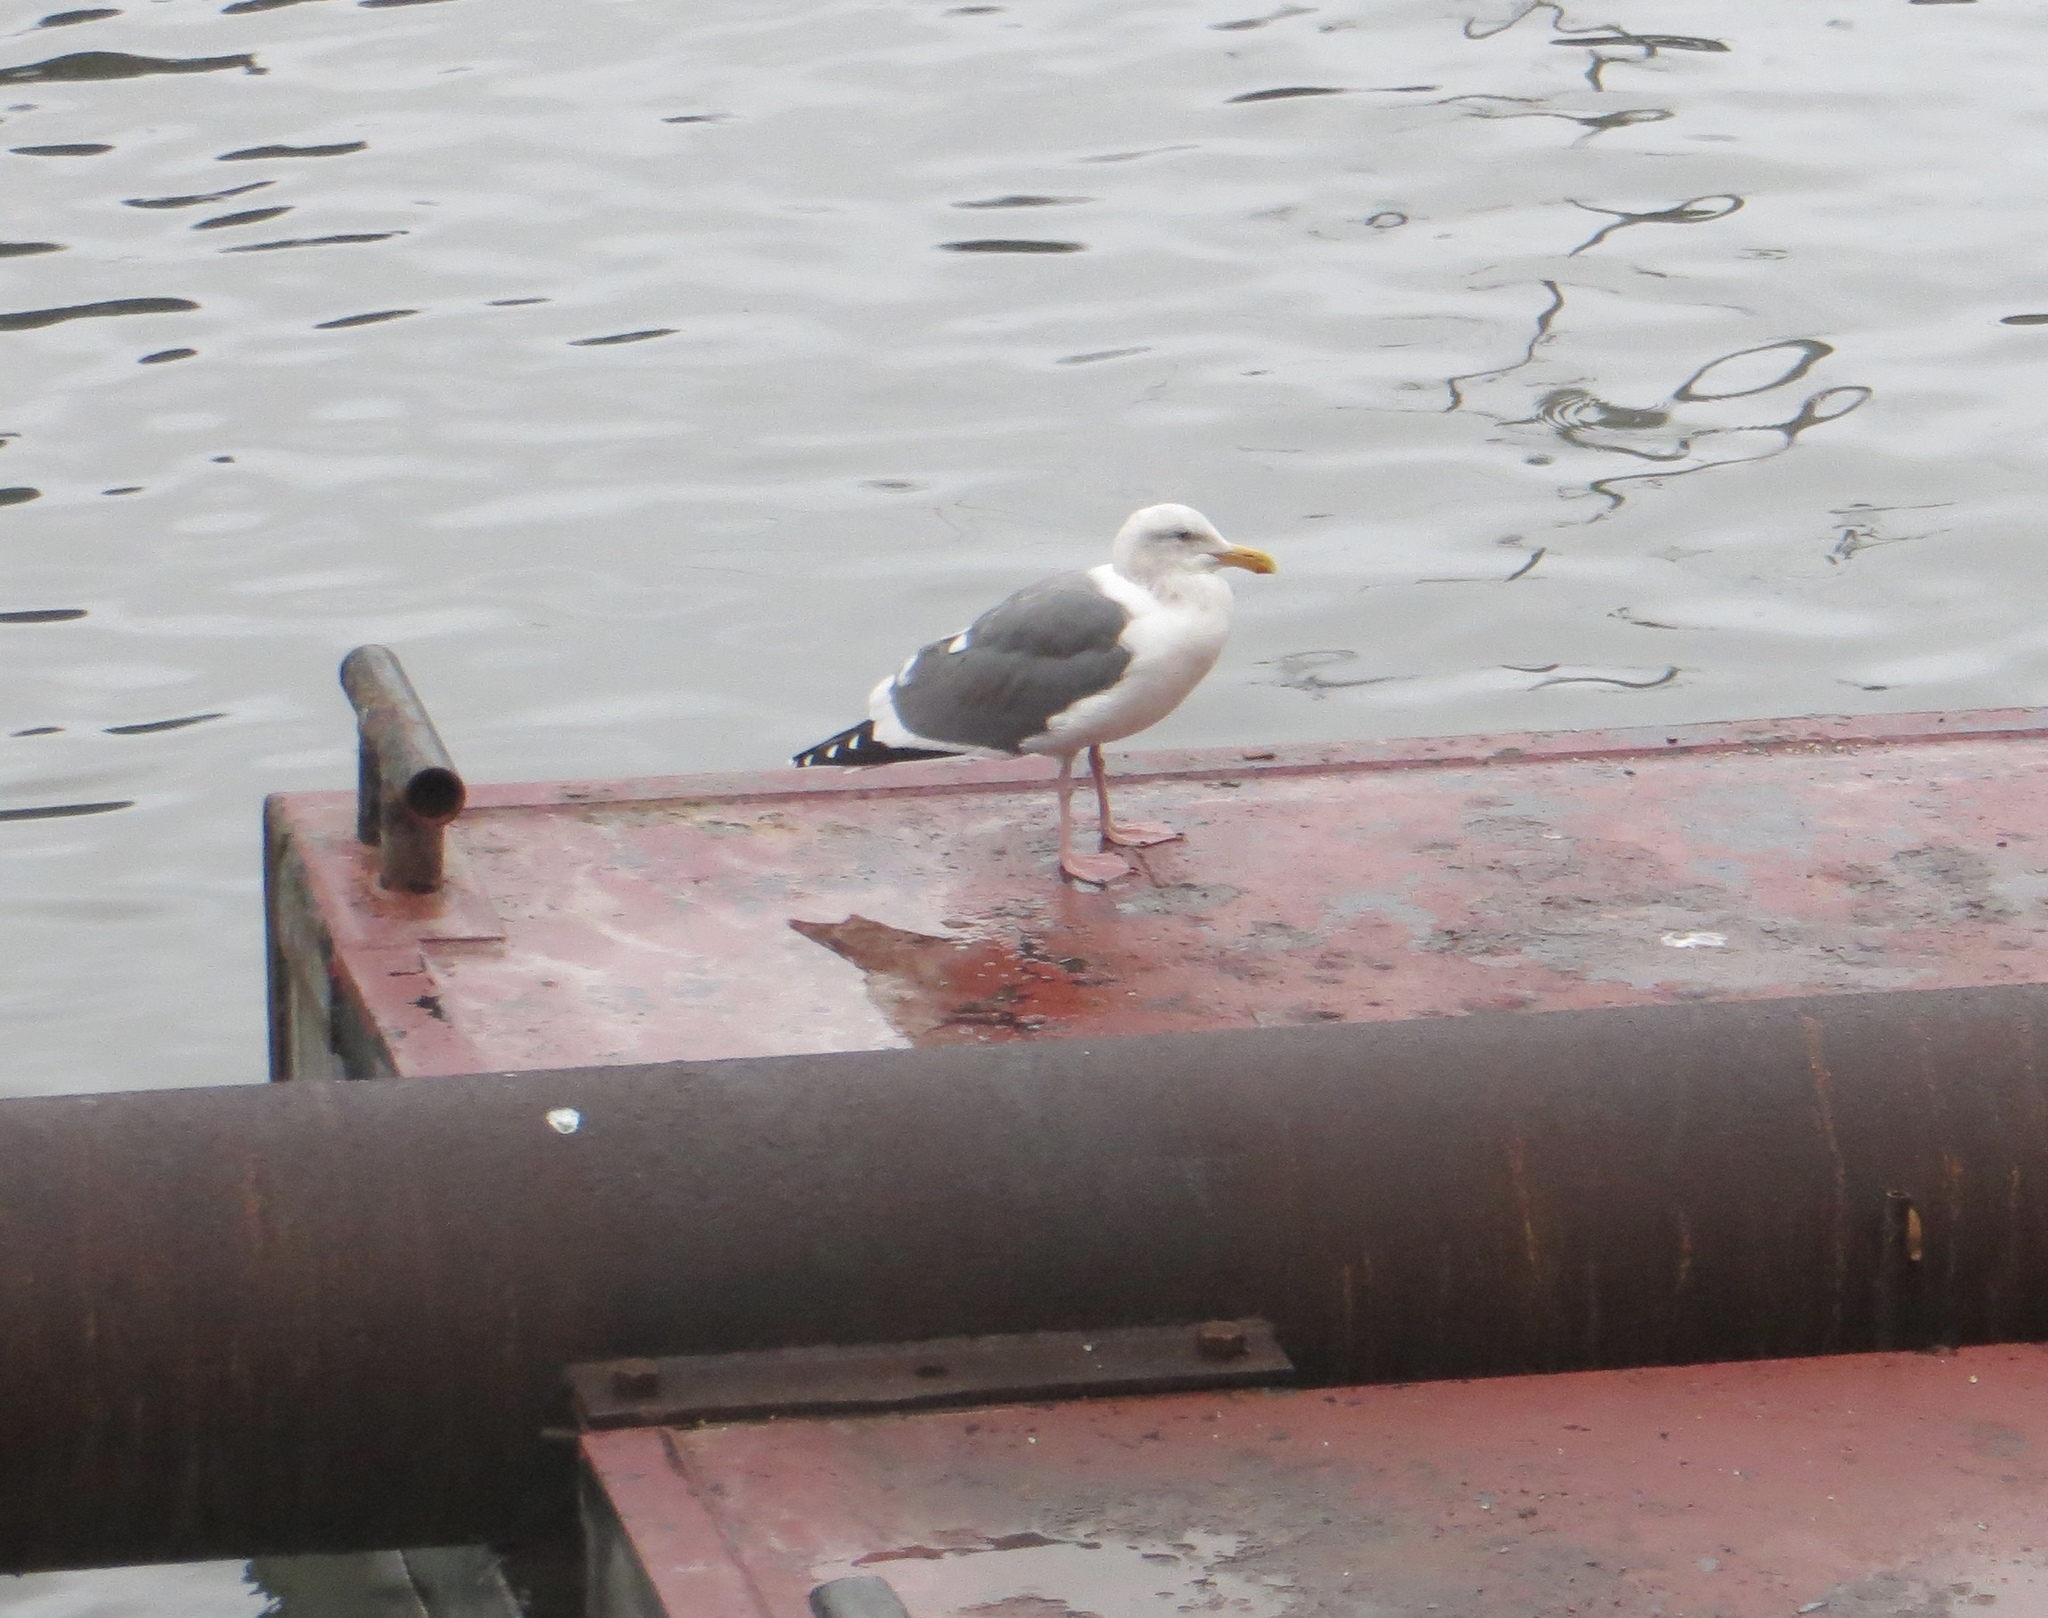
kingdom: Animalia
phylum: Chordata
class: Aves
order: Charadriiformes
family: Laridae
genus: Larus
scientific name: Larus occidentalis
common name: Western gull
